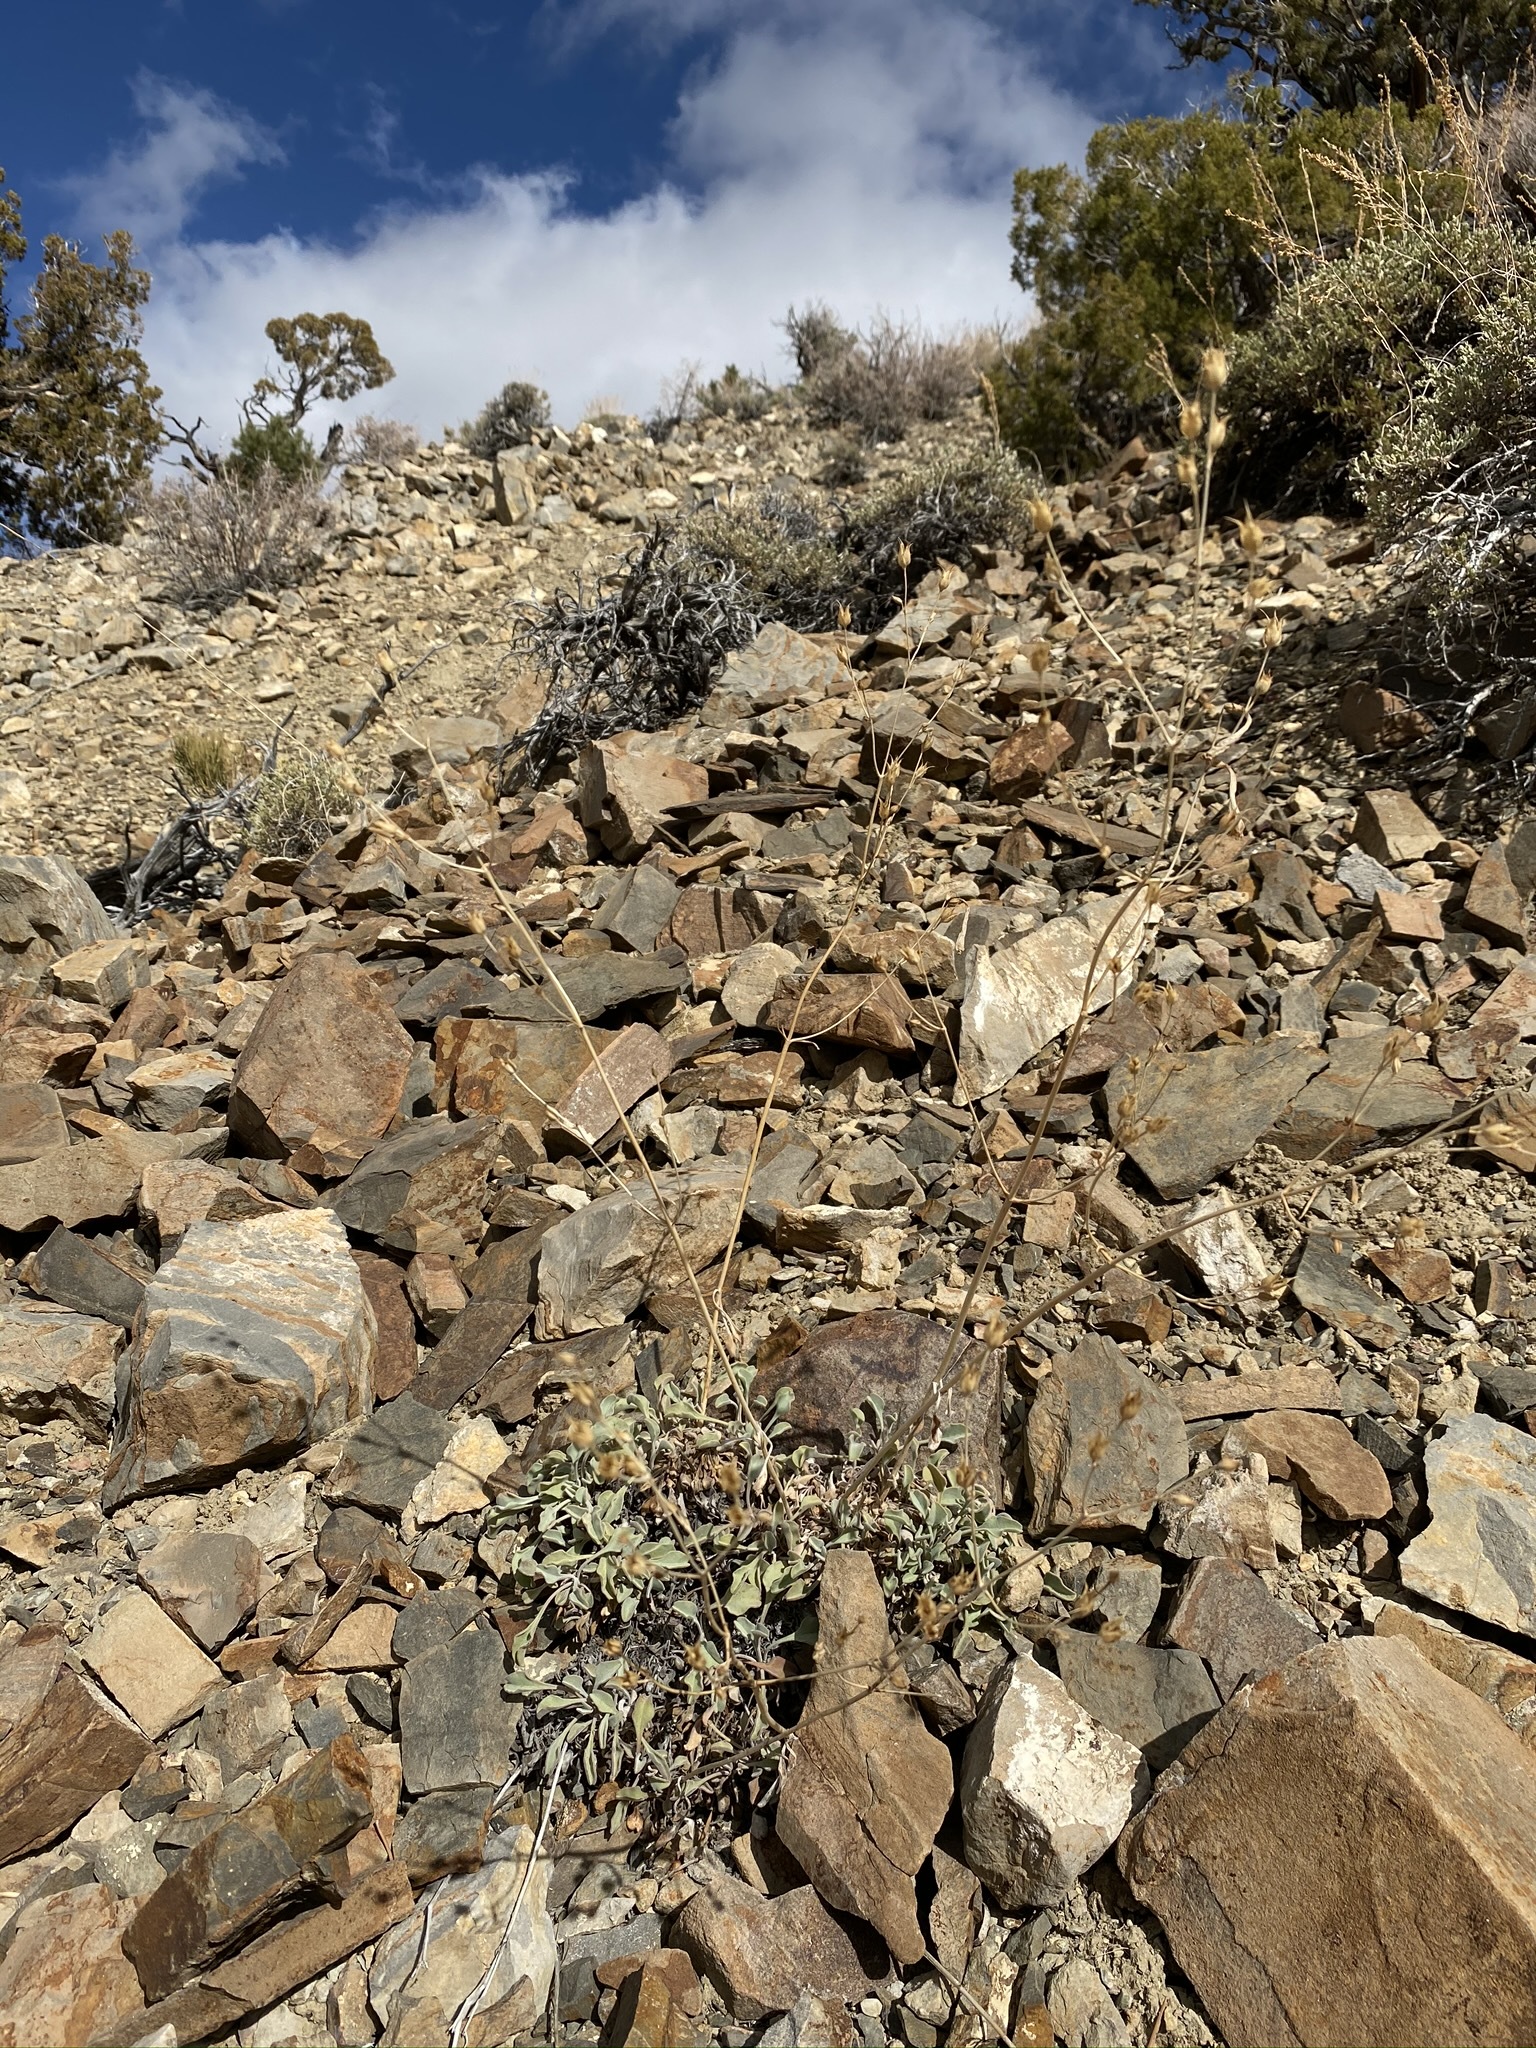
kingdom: Plantae
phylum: Tracheophyta
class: Magnoliopsida
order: Lamiales
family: Plantaginaceae
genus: Penstemon
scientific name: Penstemon scapoides
